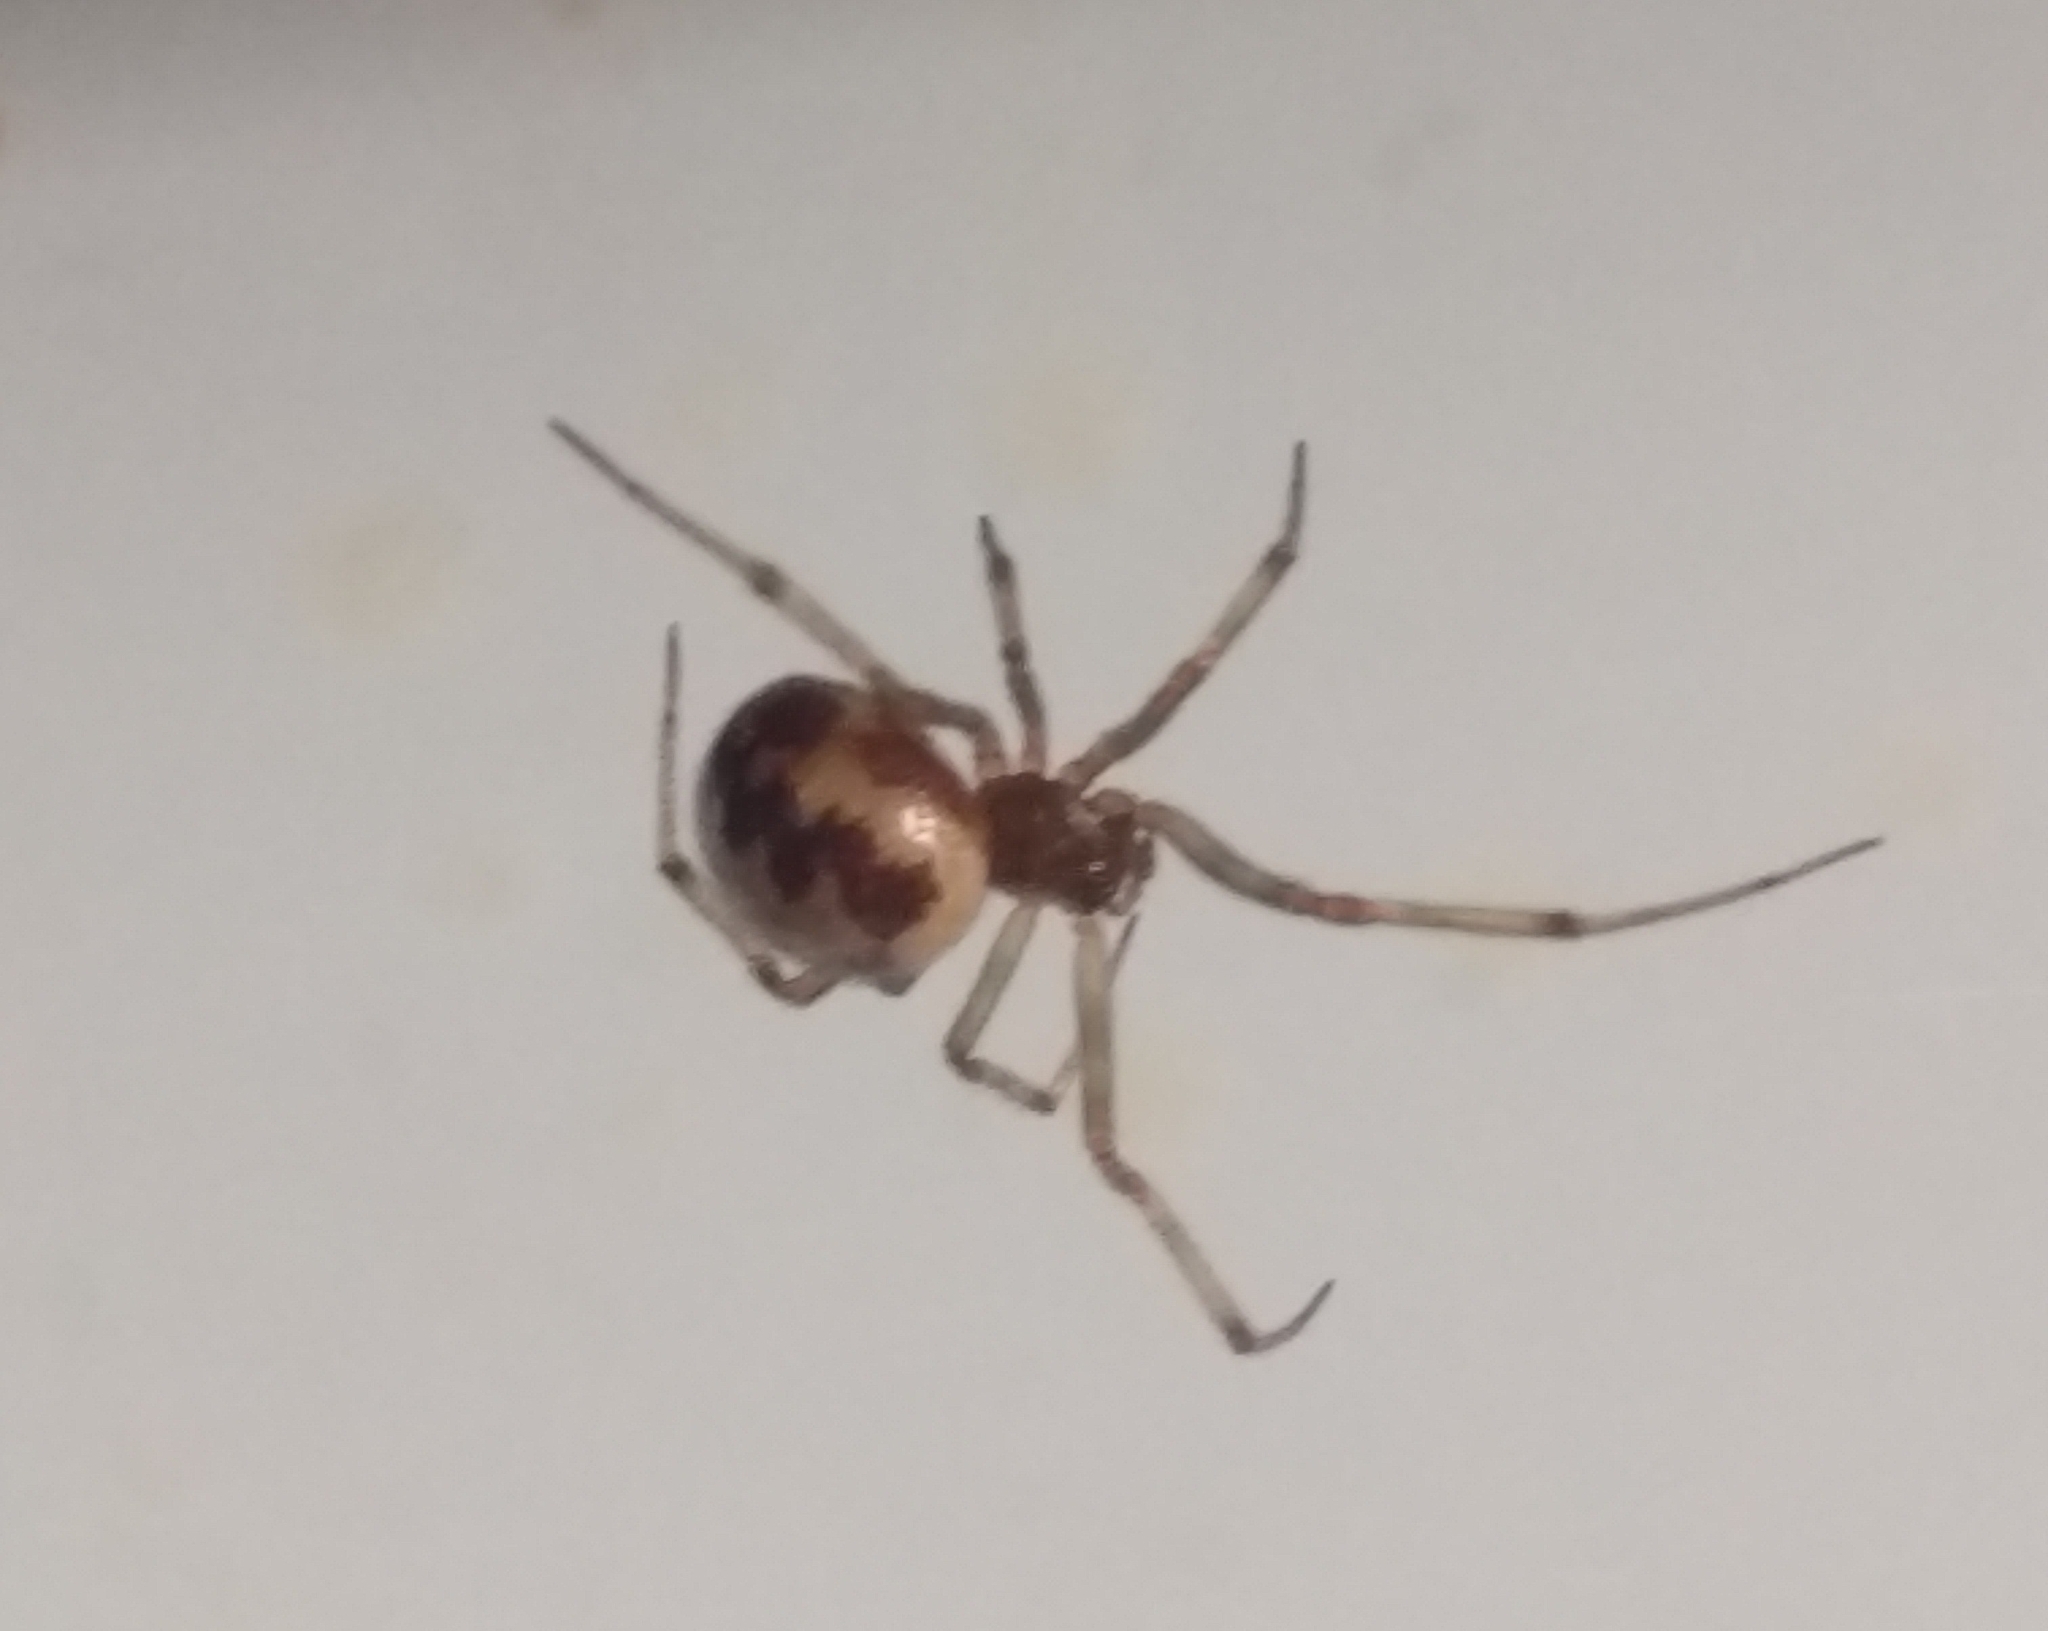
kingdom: Animalia
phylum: Arthropoda
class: Arachnida
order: Araneae
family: Theridiidae
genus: Steatoda
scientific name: Steatoda triangulosa
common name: Triangulate bud spider
